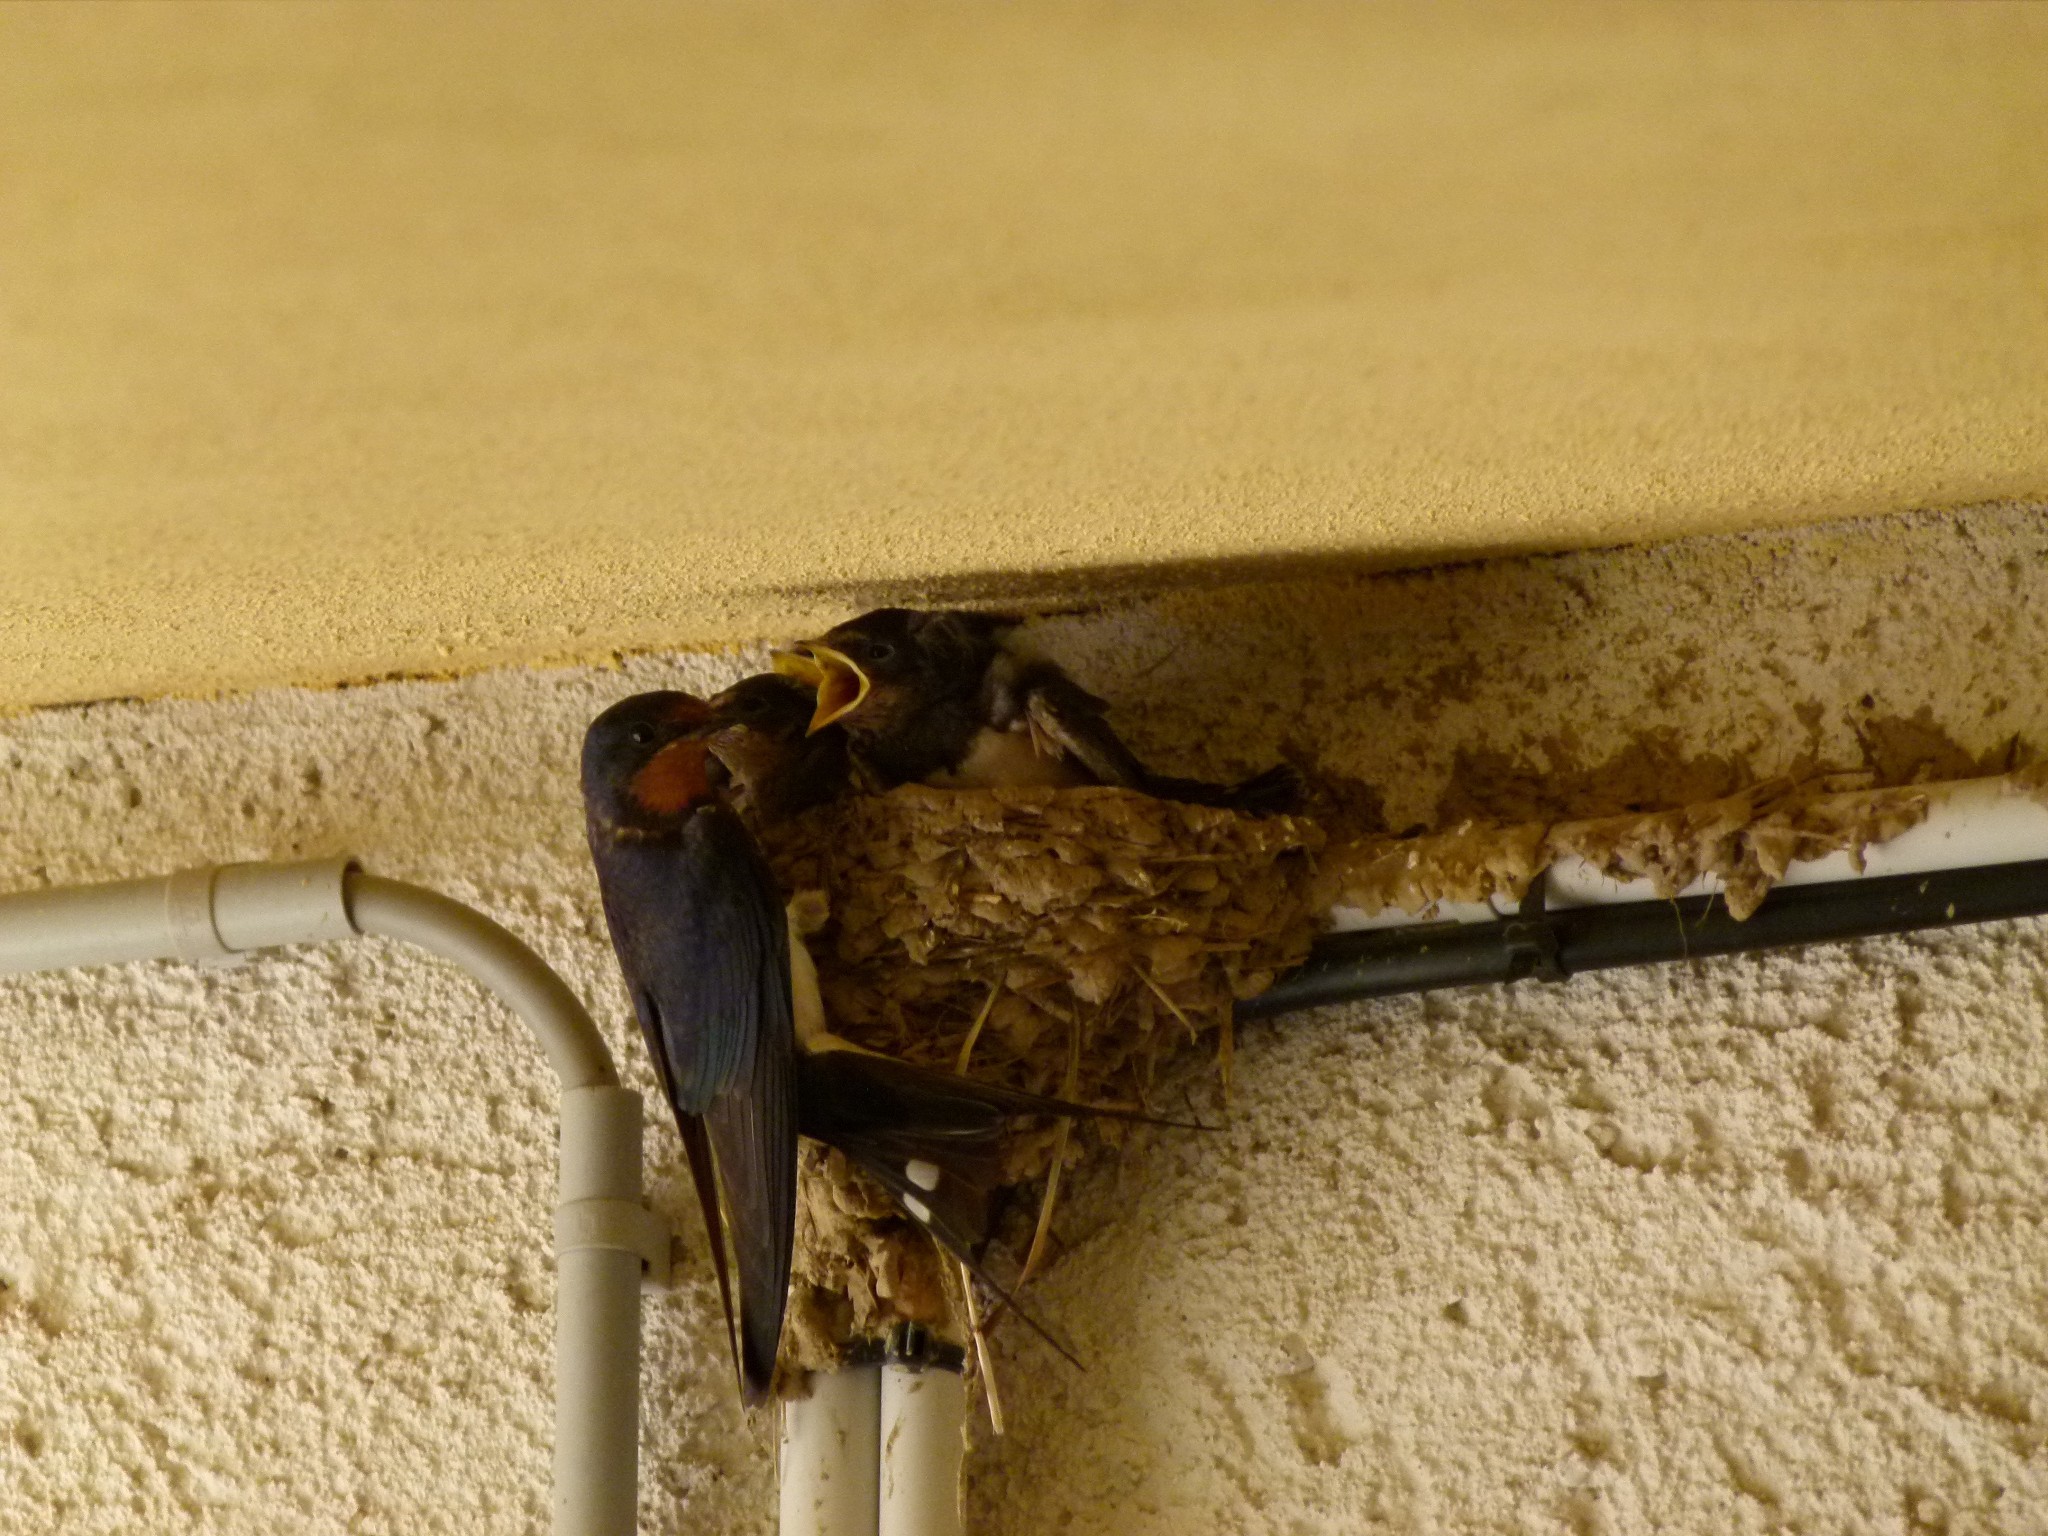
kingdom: Animalia
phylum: Chordata
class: Aves
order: Passeriformes
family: Hirundinidae
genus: Hirundo
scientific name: Hirundo rustica
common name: Barn swallow
